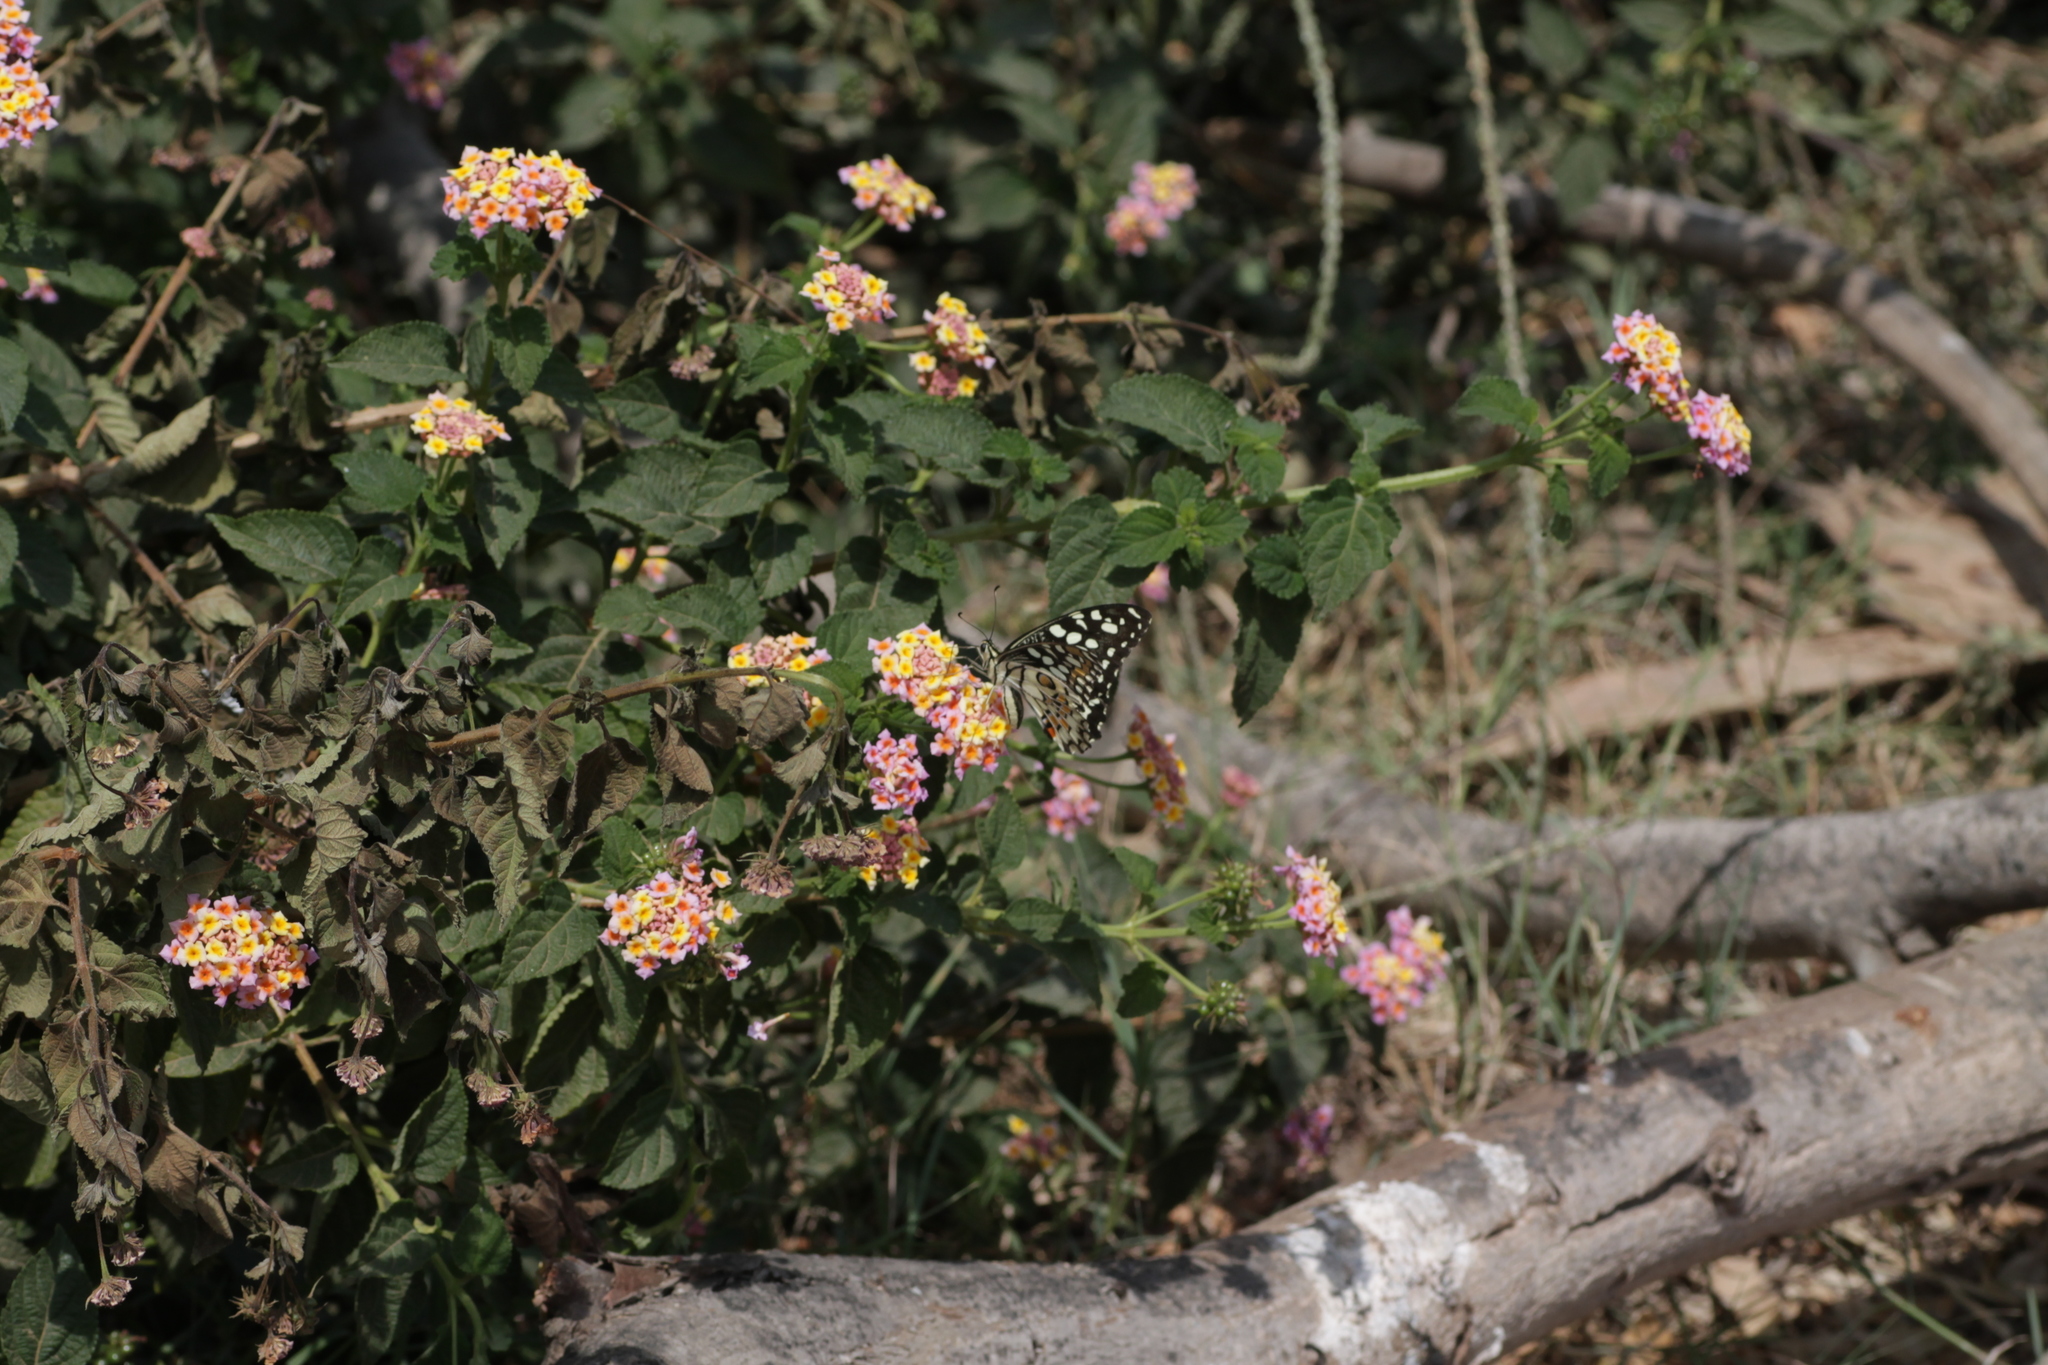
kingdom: Animalia
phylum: Arthropoda
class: Insecta
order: Lepidoptera
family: Papilionidae
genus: Papilio
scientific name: Papilio demoleus
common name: Lime butterfly
